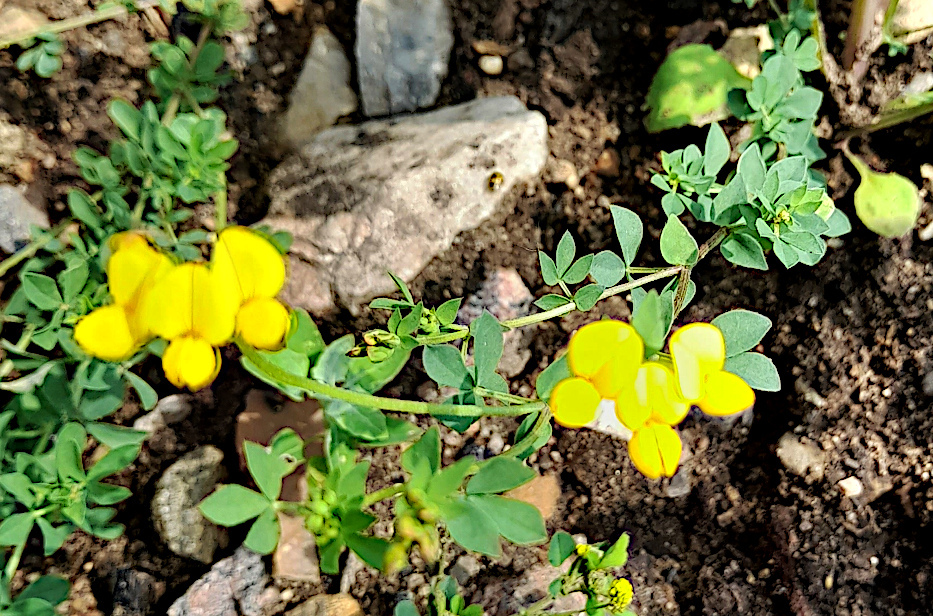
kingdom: Plantae
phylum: Tracheophyta
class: Magnoliopsida
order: Fabales
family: Fabaceae
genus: Lotus
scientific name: Lotus corniculatus
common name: Common bird's-foot-trefoil
